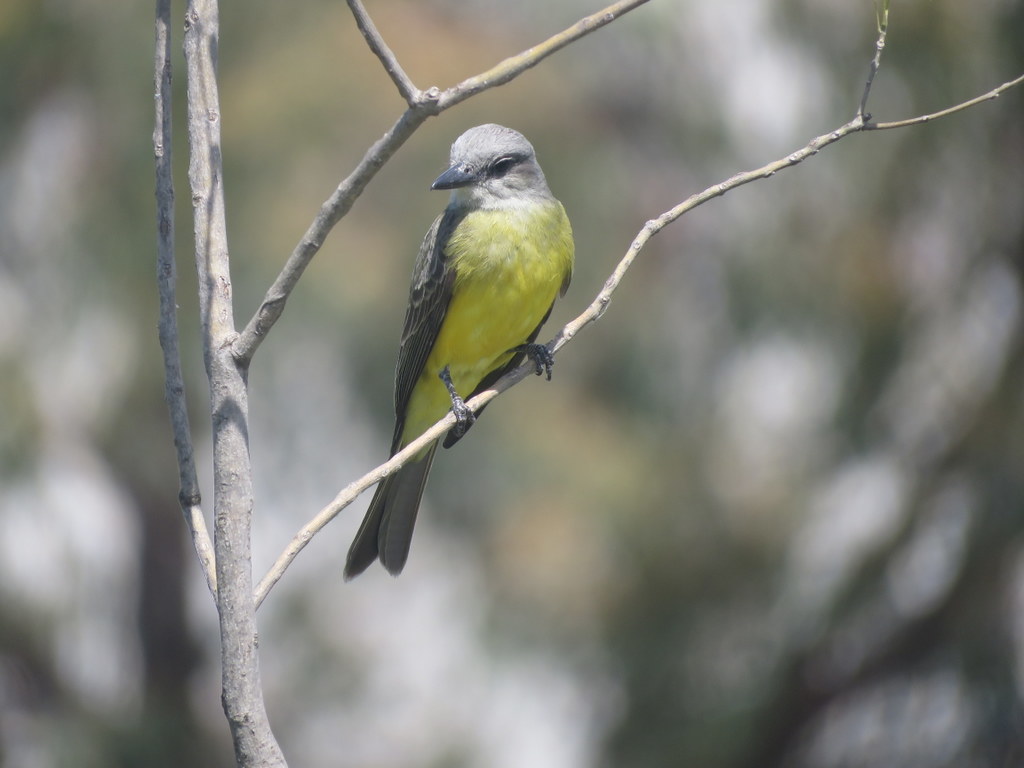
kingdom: Animalia
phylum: Chordata
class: Aves
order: Passeriformes
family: Tyrannidae
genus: Tyrannus
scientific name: Tyrannus melancholicus
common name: Tropical kingbird
